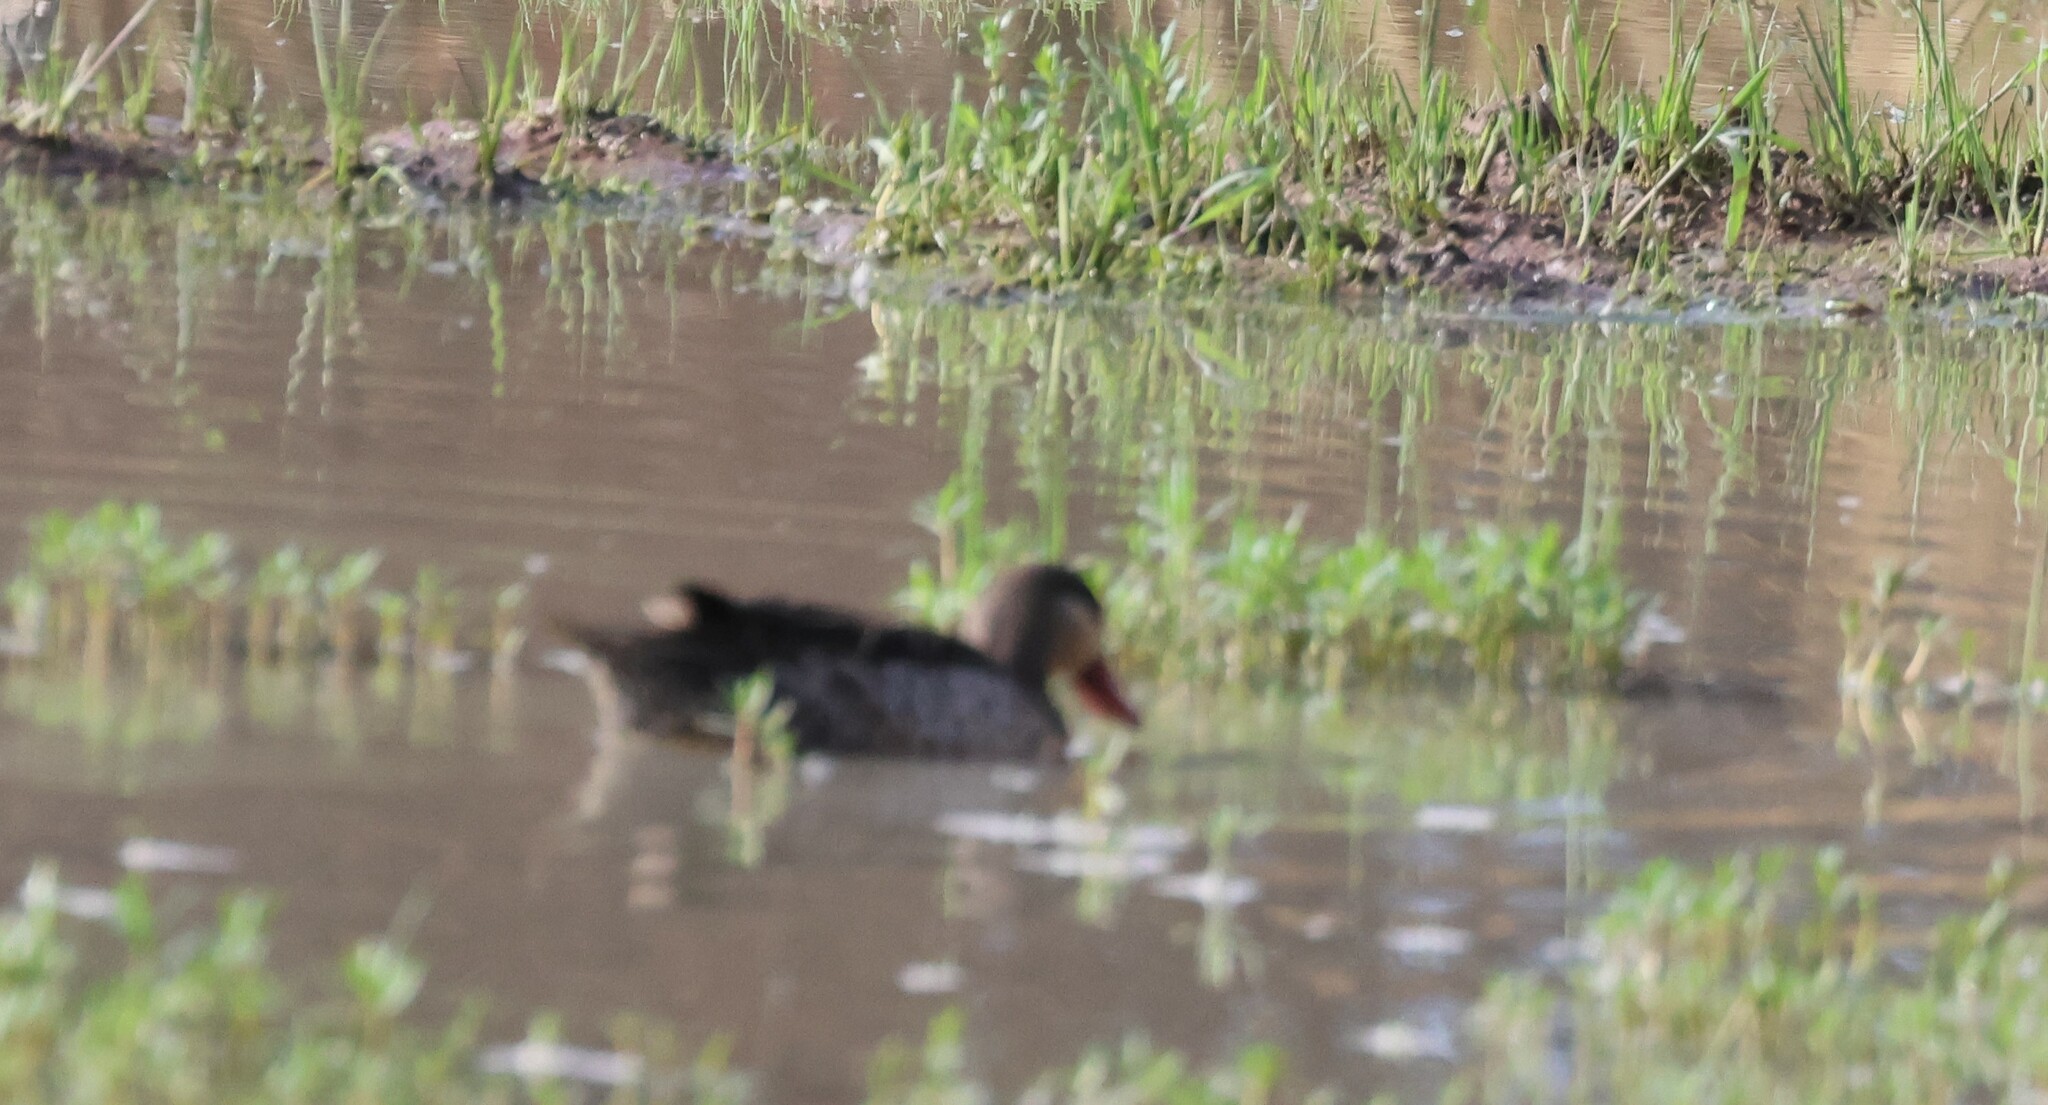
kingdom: Animalia
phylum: Chordata
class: Aves
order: Anseriformes
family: Anatidae
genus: Anas
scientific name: Anas erythrorhyncha
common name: Red-billed teal
